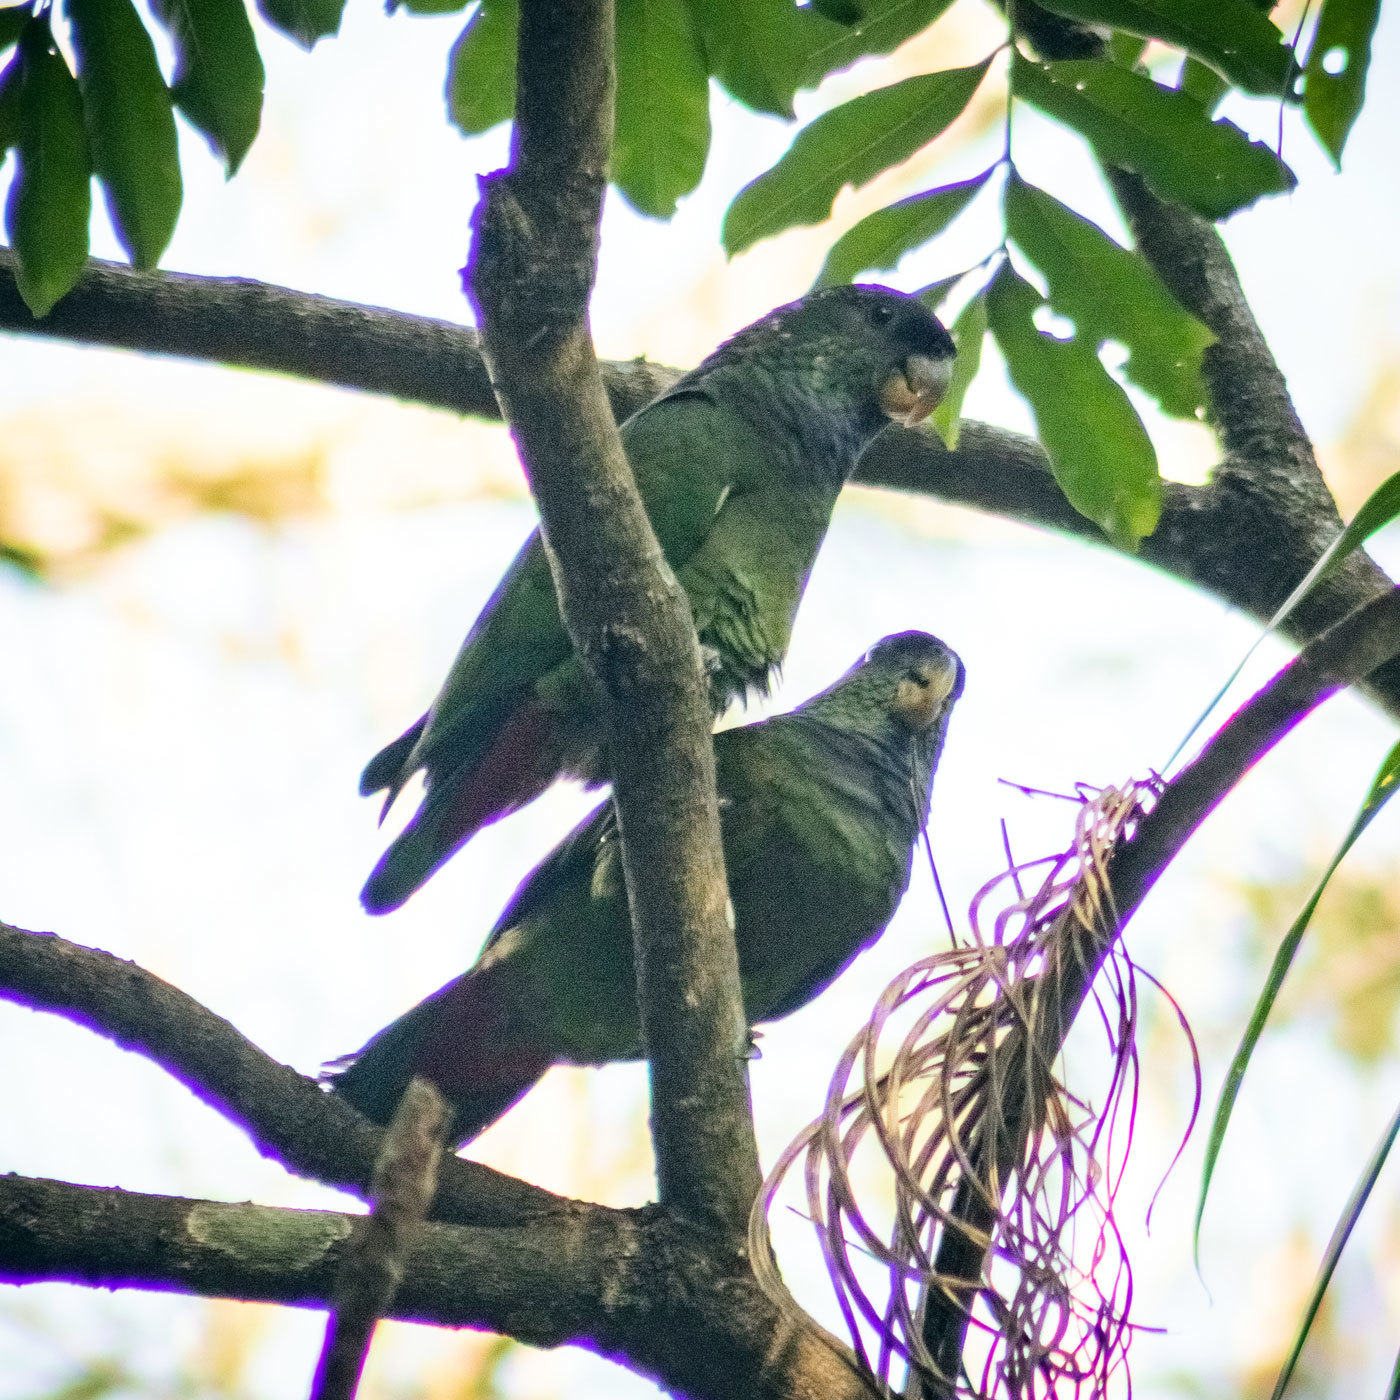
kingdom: Animalia
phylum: Chordata
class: Aves
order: Psittaciformes
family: Psittacidae
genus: Pionus
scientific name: Pionus maximiliani
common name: Scaly-headed parrot
